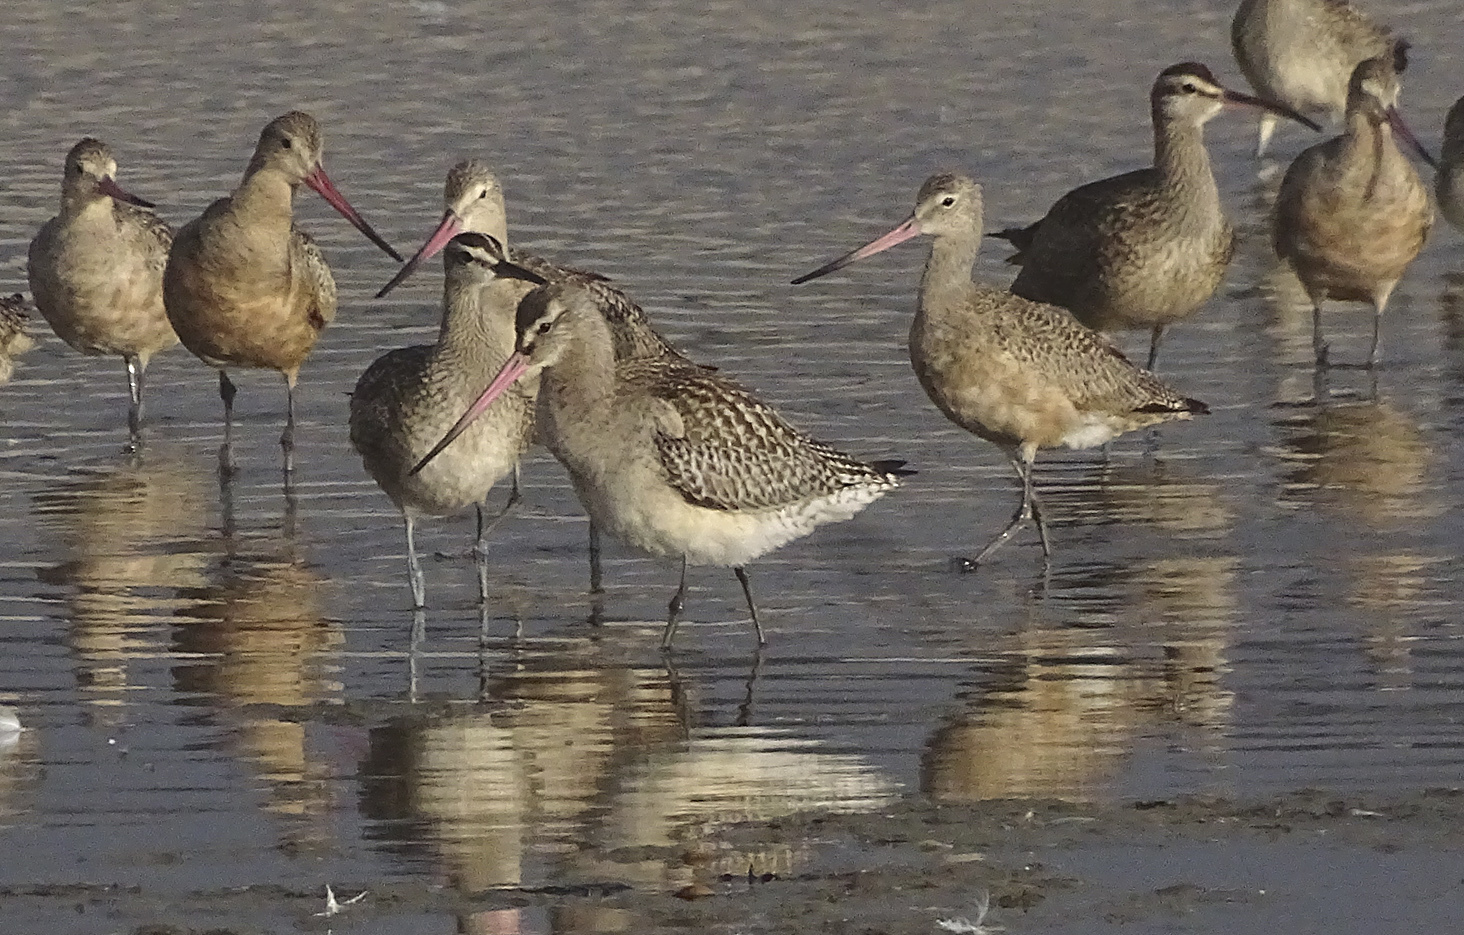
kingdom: Animalia
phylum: Chordata
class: Aves
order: Charadriiformes
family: Scolopacidae
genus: Limosa
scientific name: Limosa lapponica
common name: Bar-tailed godwit
